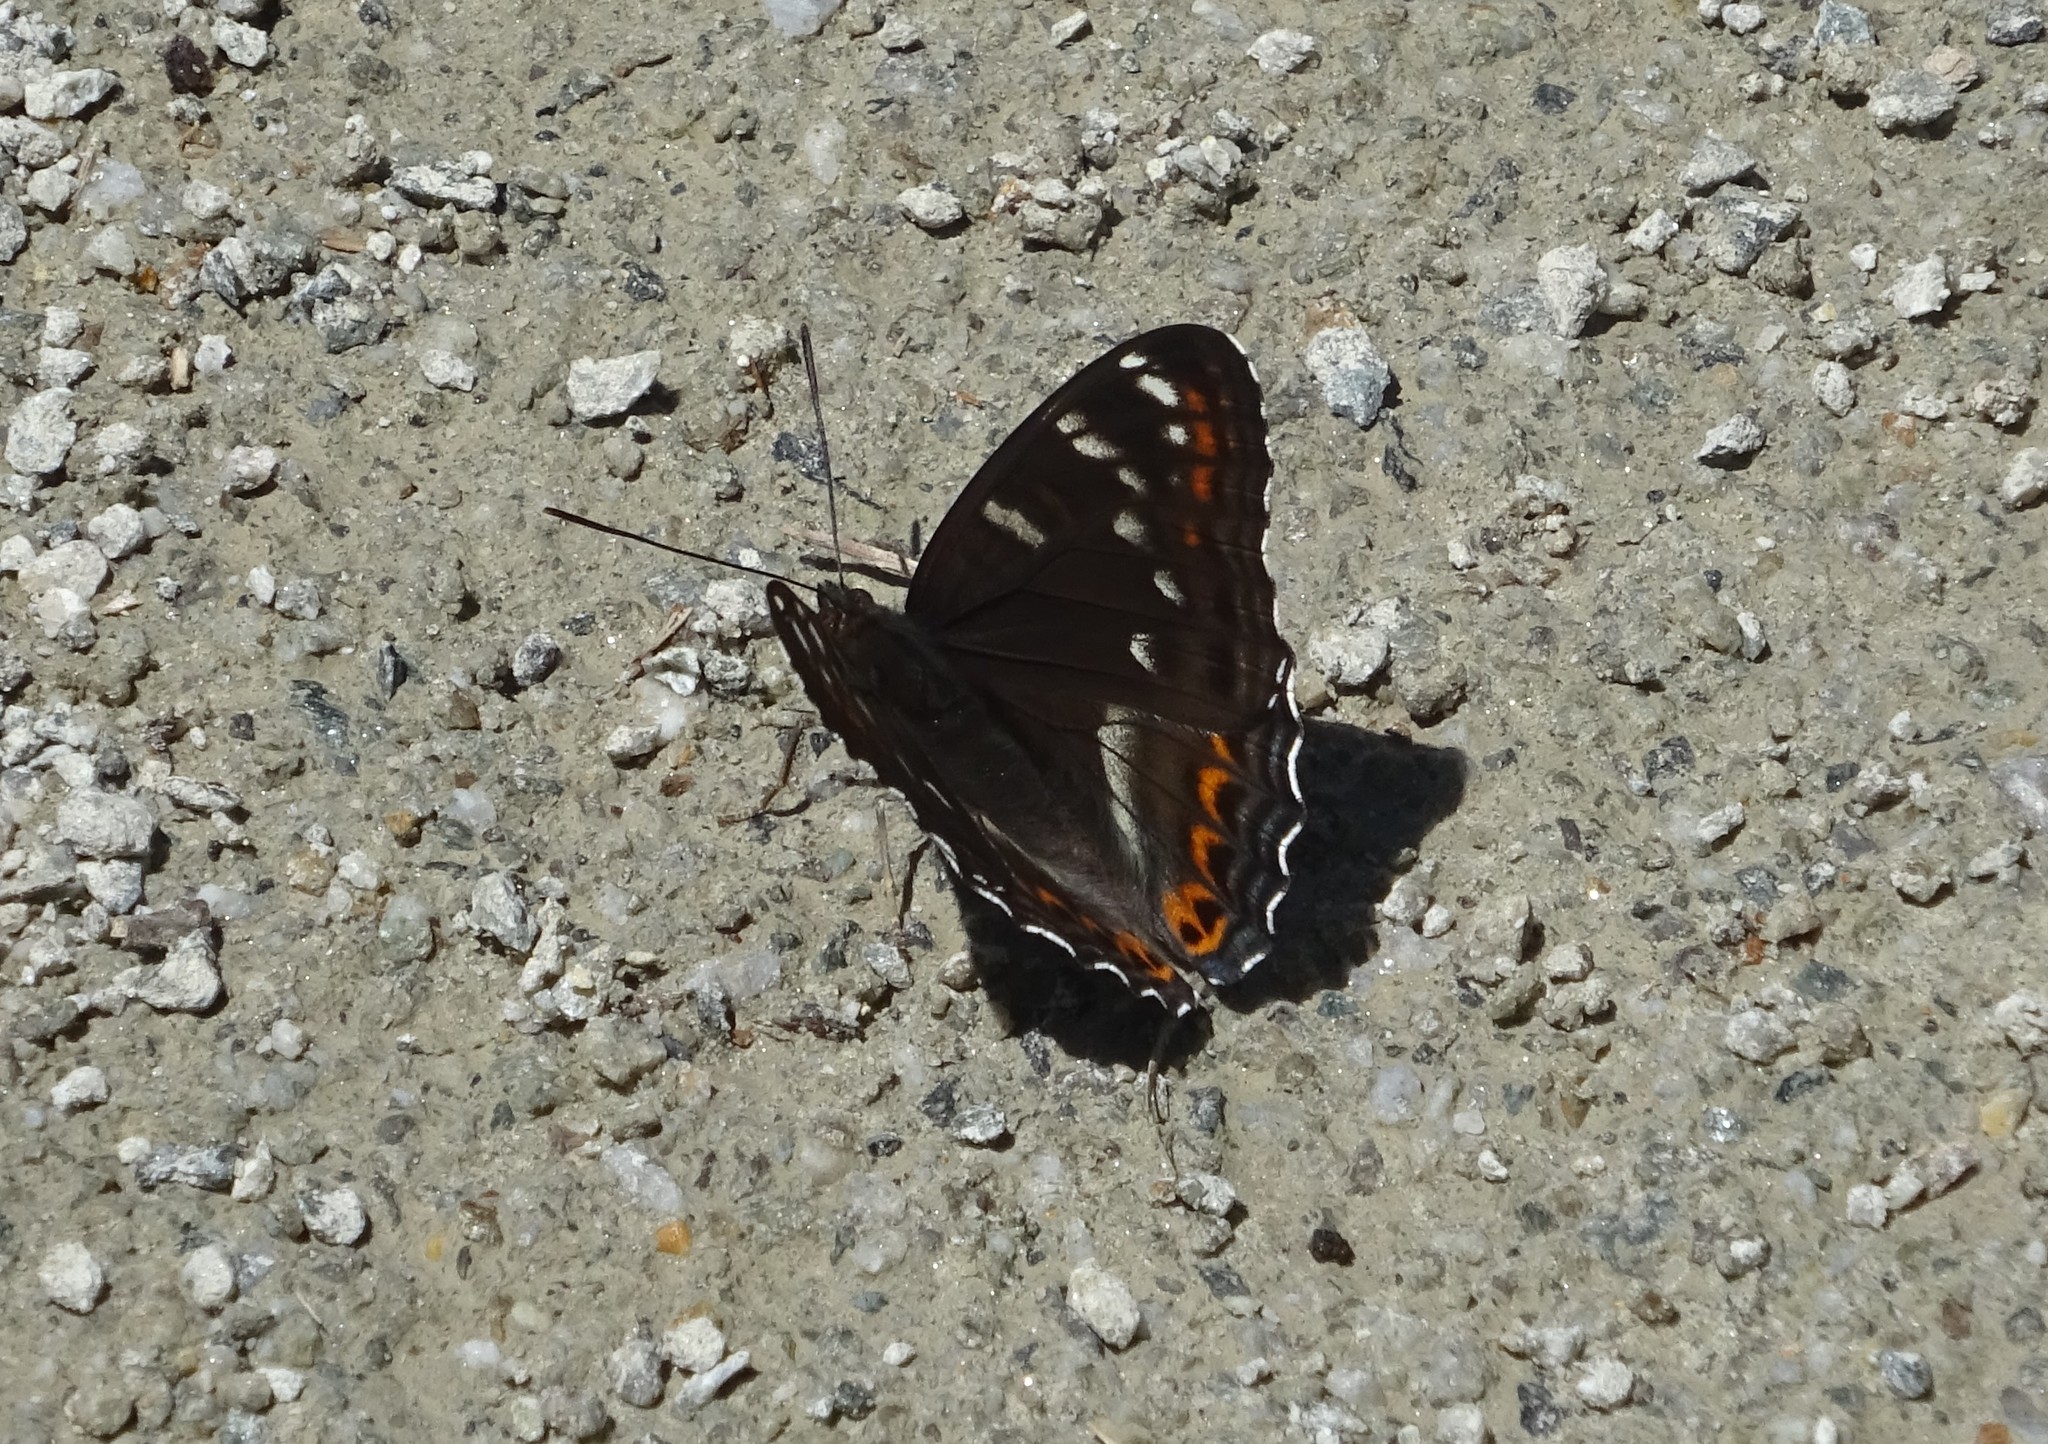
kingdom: Animalia
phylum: Arthropoda
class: Insecta
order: Lepidoptera
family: Nymphalidae
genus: Limenitis
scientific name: Limenitis populi
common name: Poplar admiral
